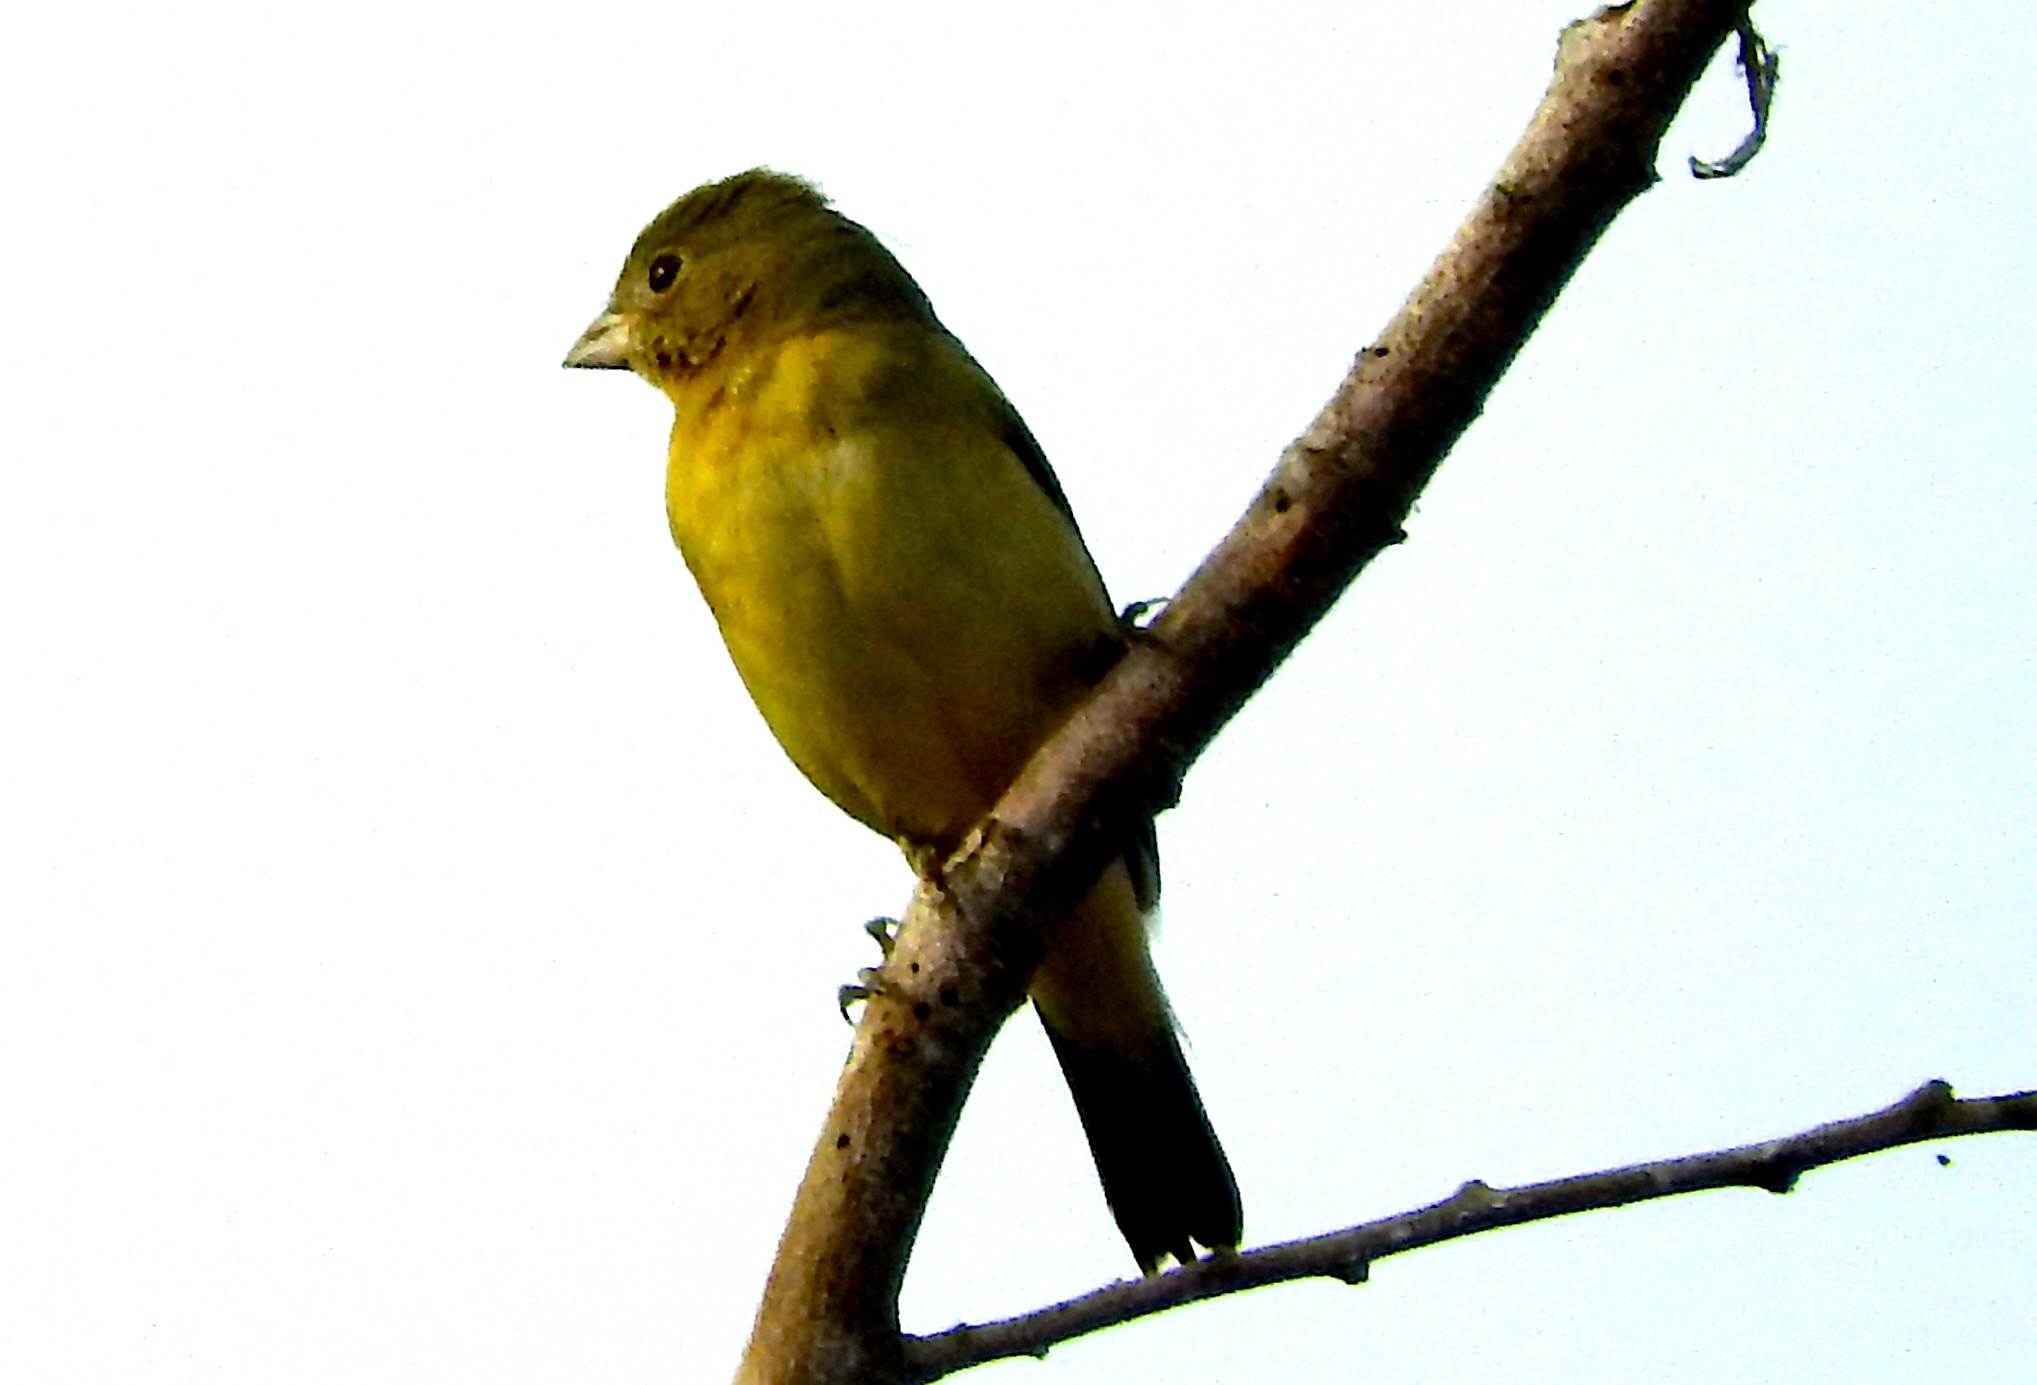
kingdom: Animalia
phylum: Chordata
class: Aves
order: Passeriformes
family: Cardinalidae
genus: Passerina
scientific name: Passerina ciris
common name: Painted bunting
